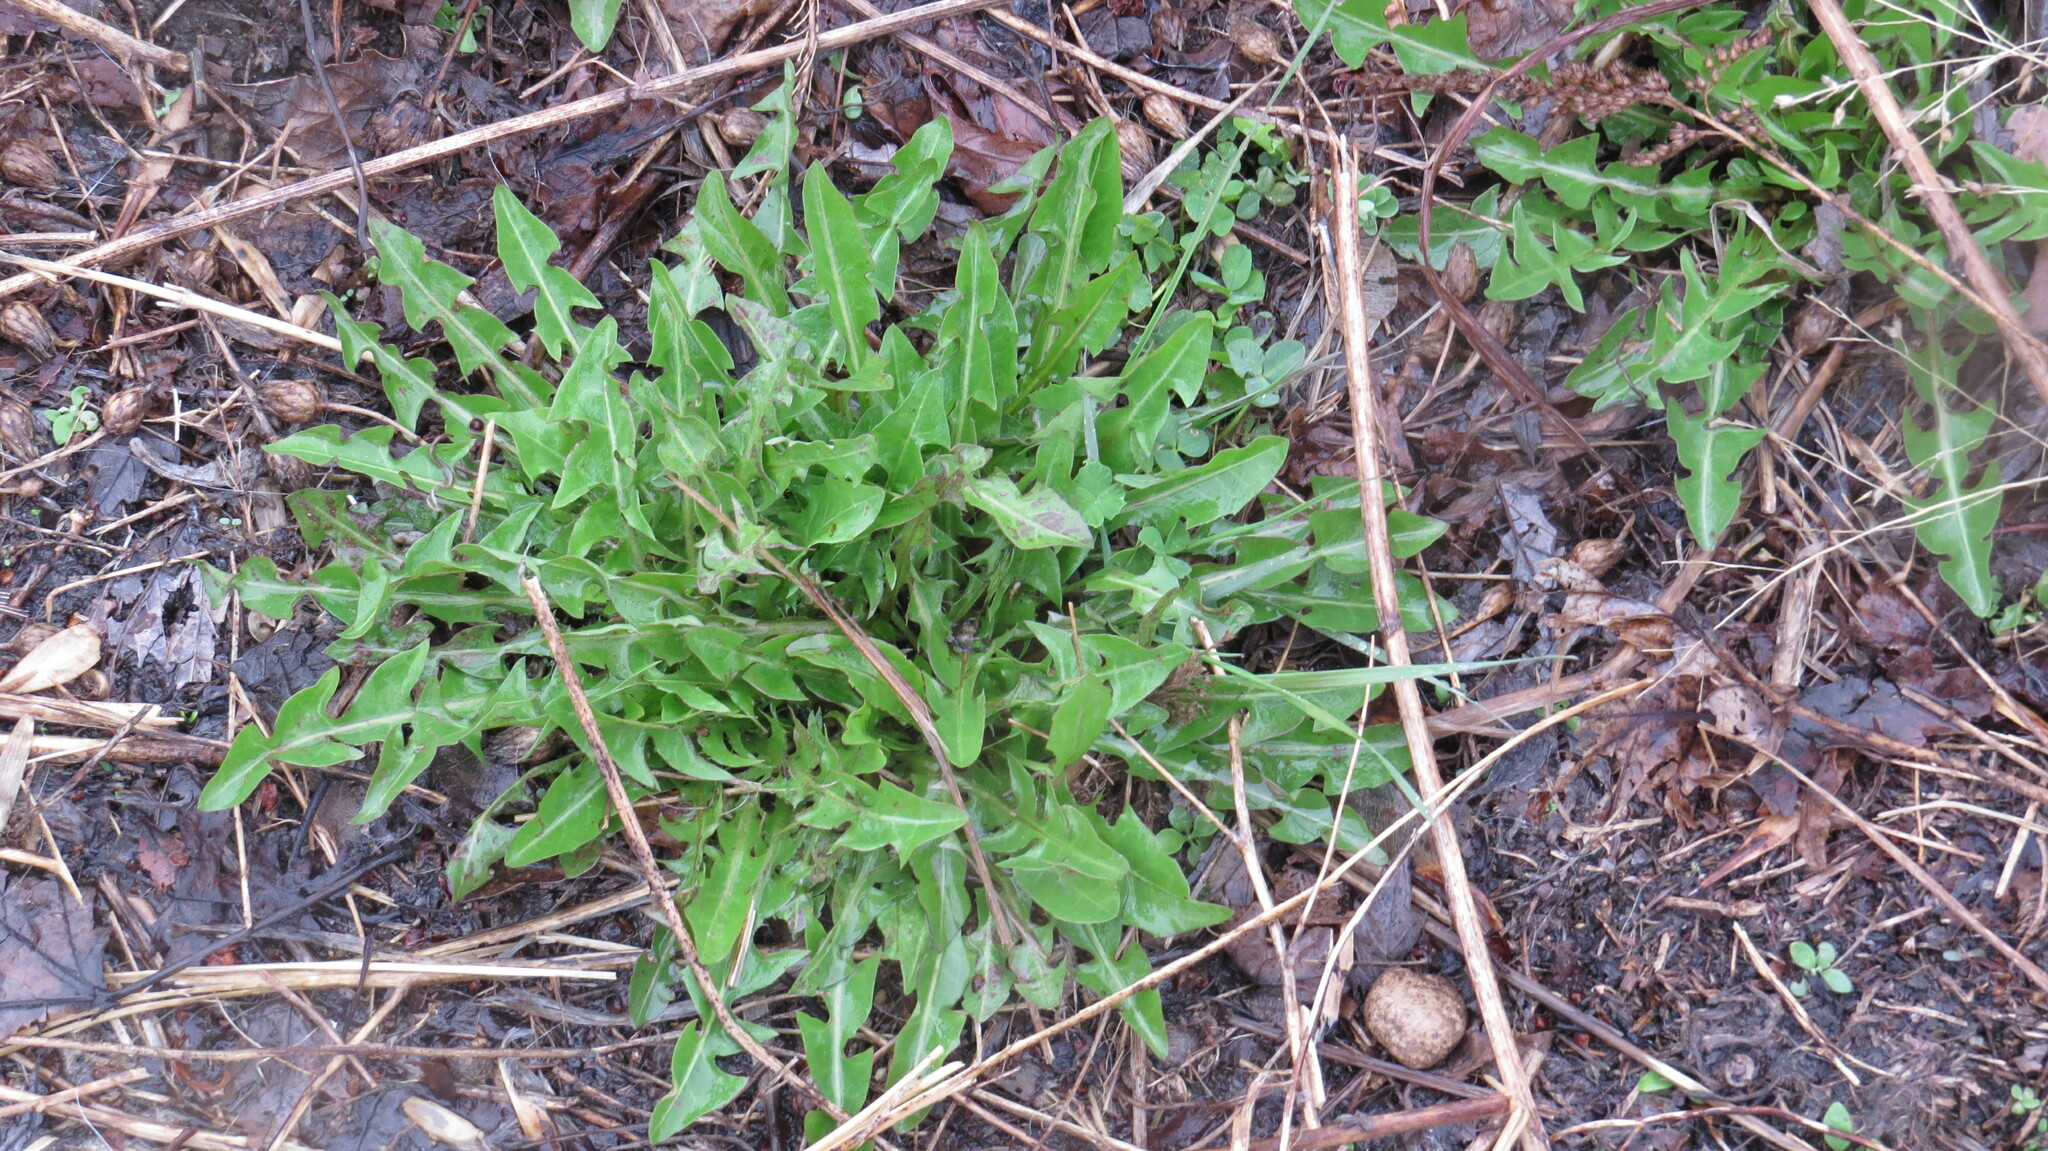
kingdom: Plantae
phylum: Tracheophyta
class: Magnoliopsida
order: Asterales
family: Asteraceae
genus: Taraxacum
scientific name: Taraxacum officinale
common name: Common dandelion
